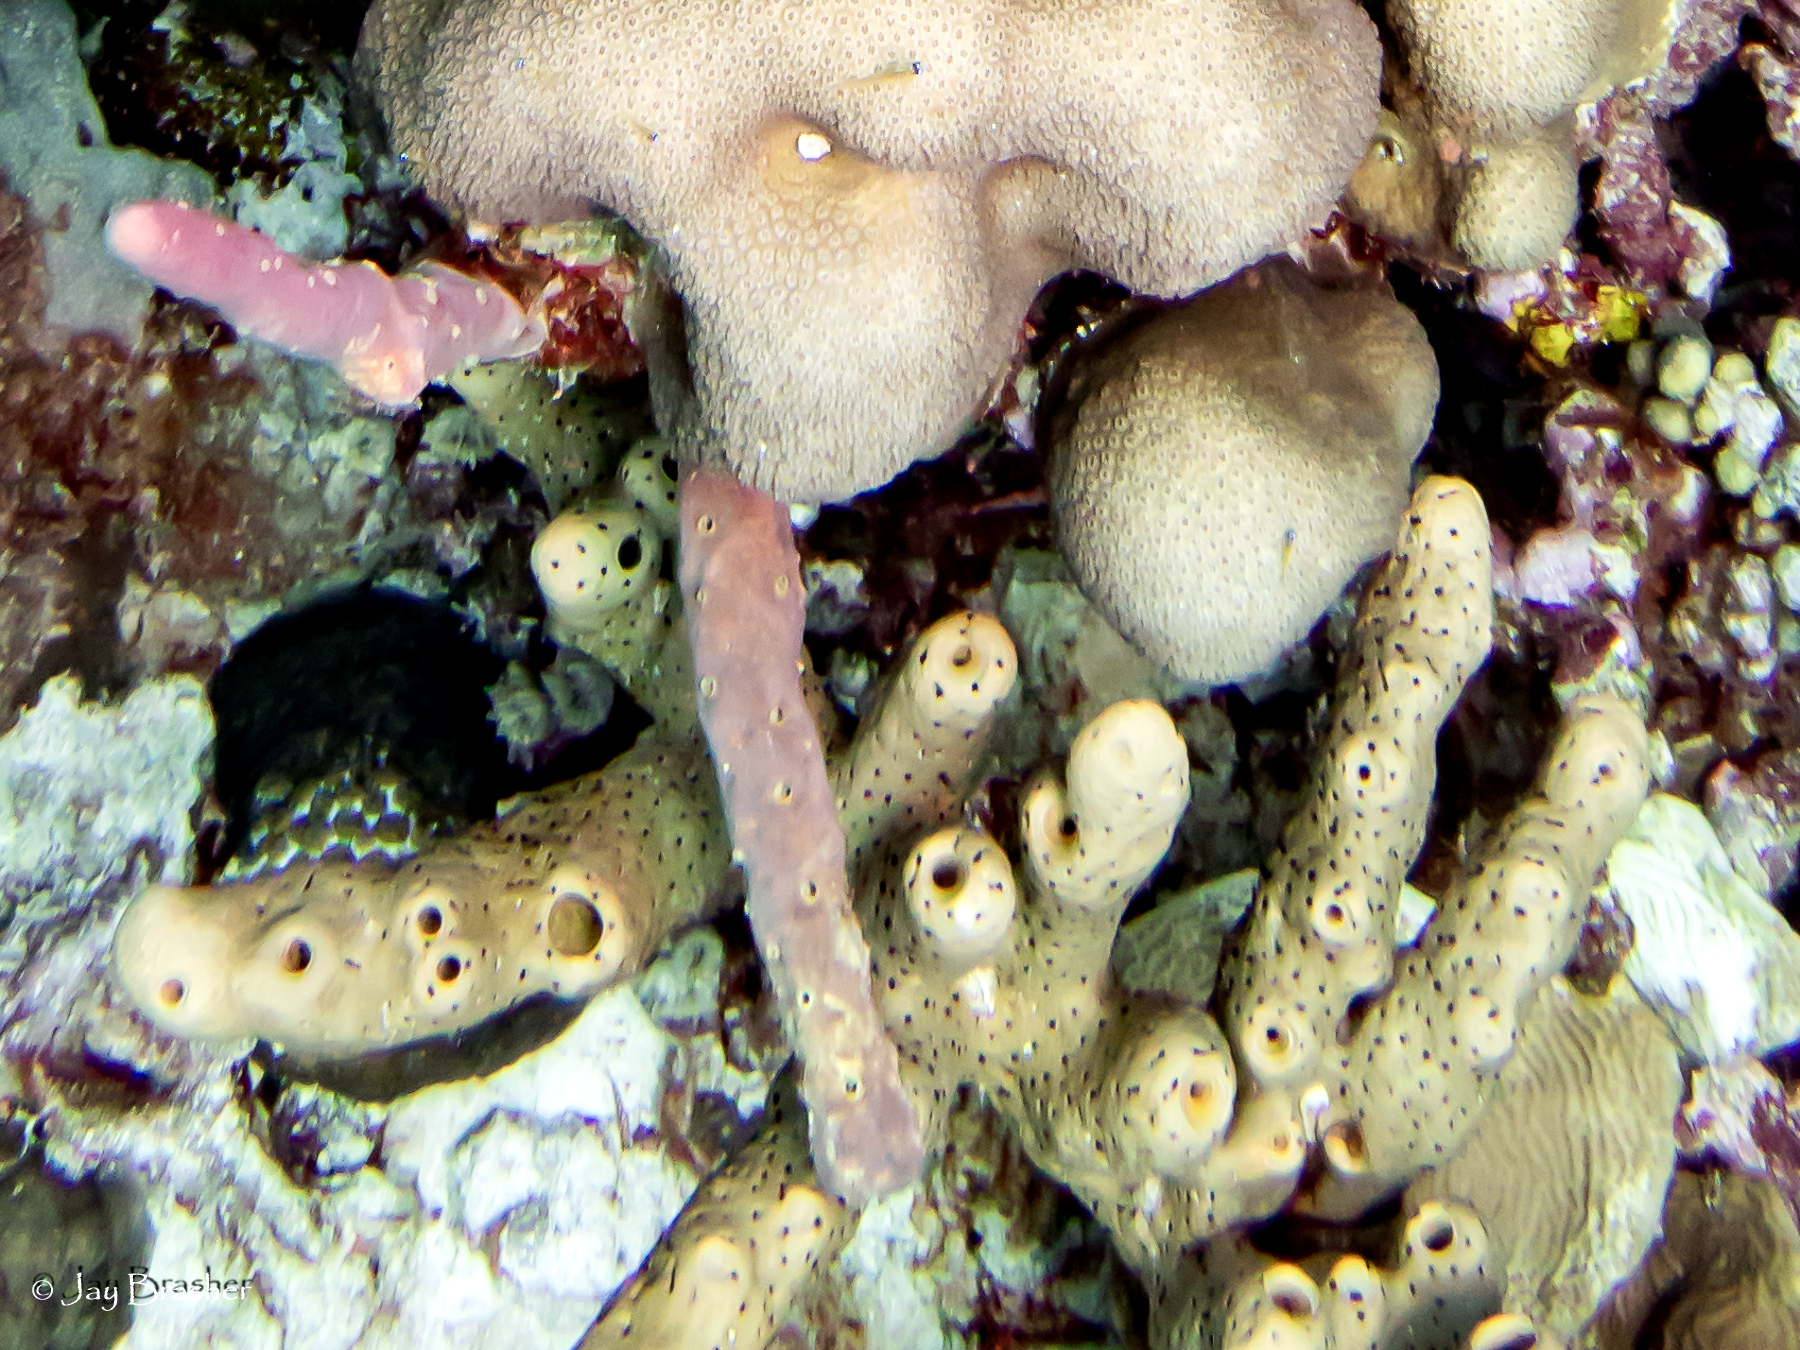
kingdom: Animalia
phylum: Porifera
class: Demospongiae
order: Agelasida
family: Agelasidae
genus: Agelas
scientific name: Agelas conifera
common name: Brown tube sponge
